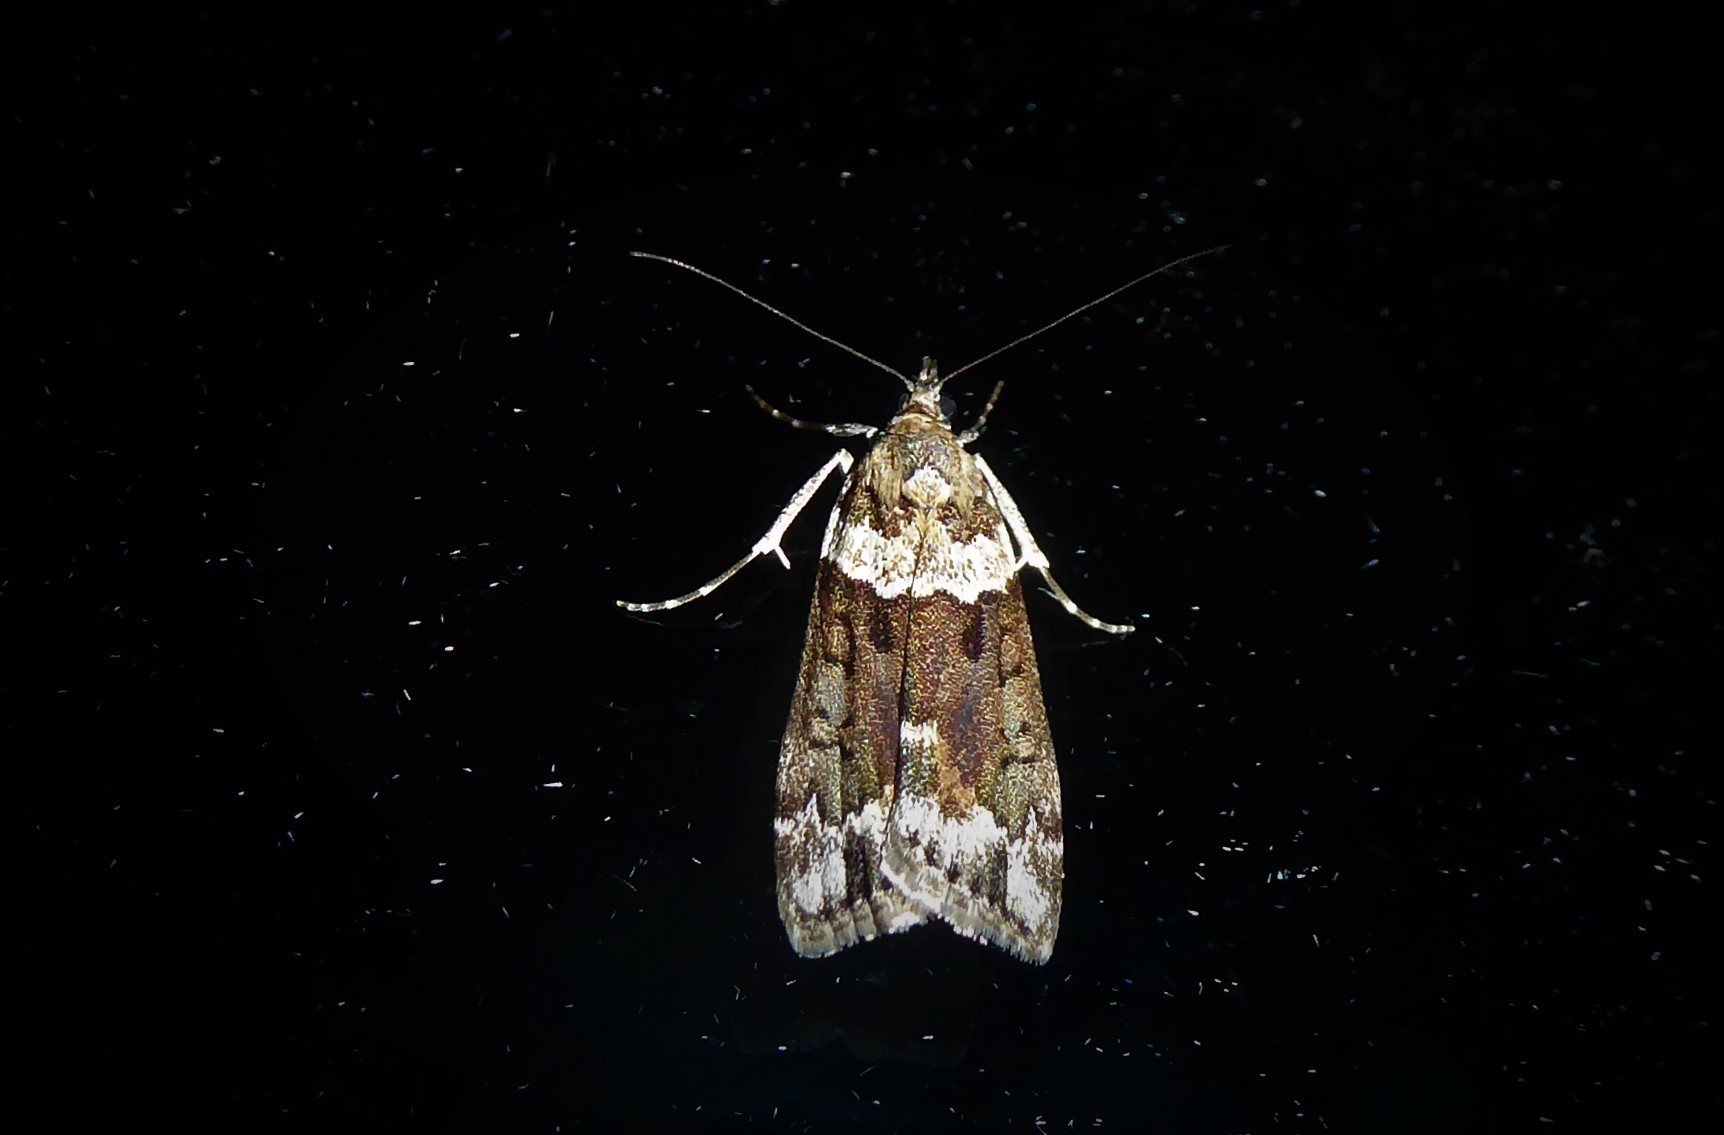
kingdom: Animalia
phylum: Arthropoda
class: Insecta
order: Lepidoptera
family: Crambidae
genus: Eudonia
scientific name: Eudonia submarginalis
